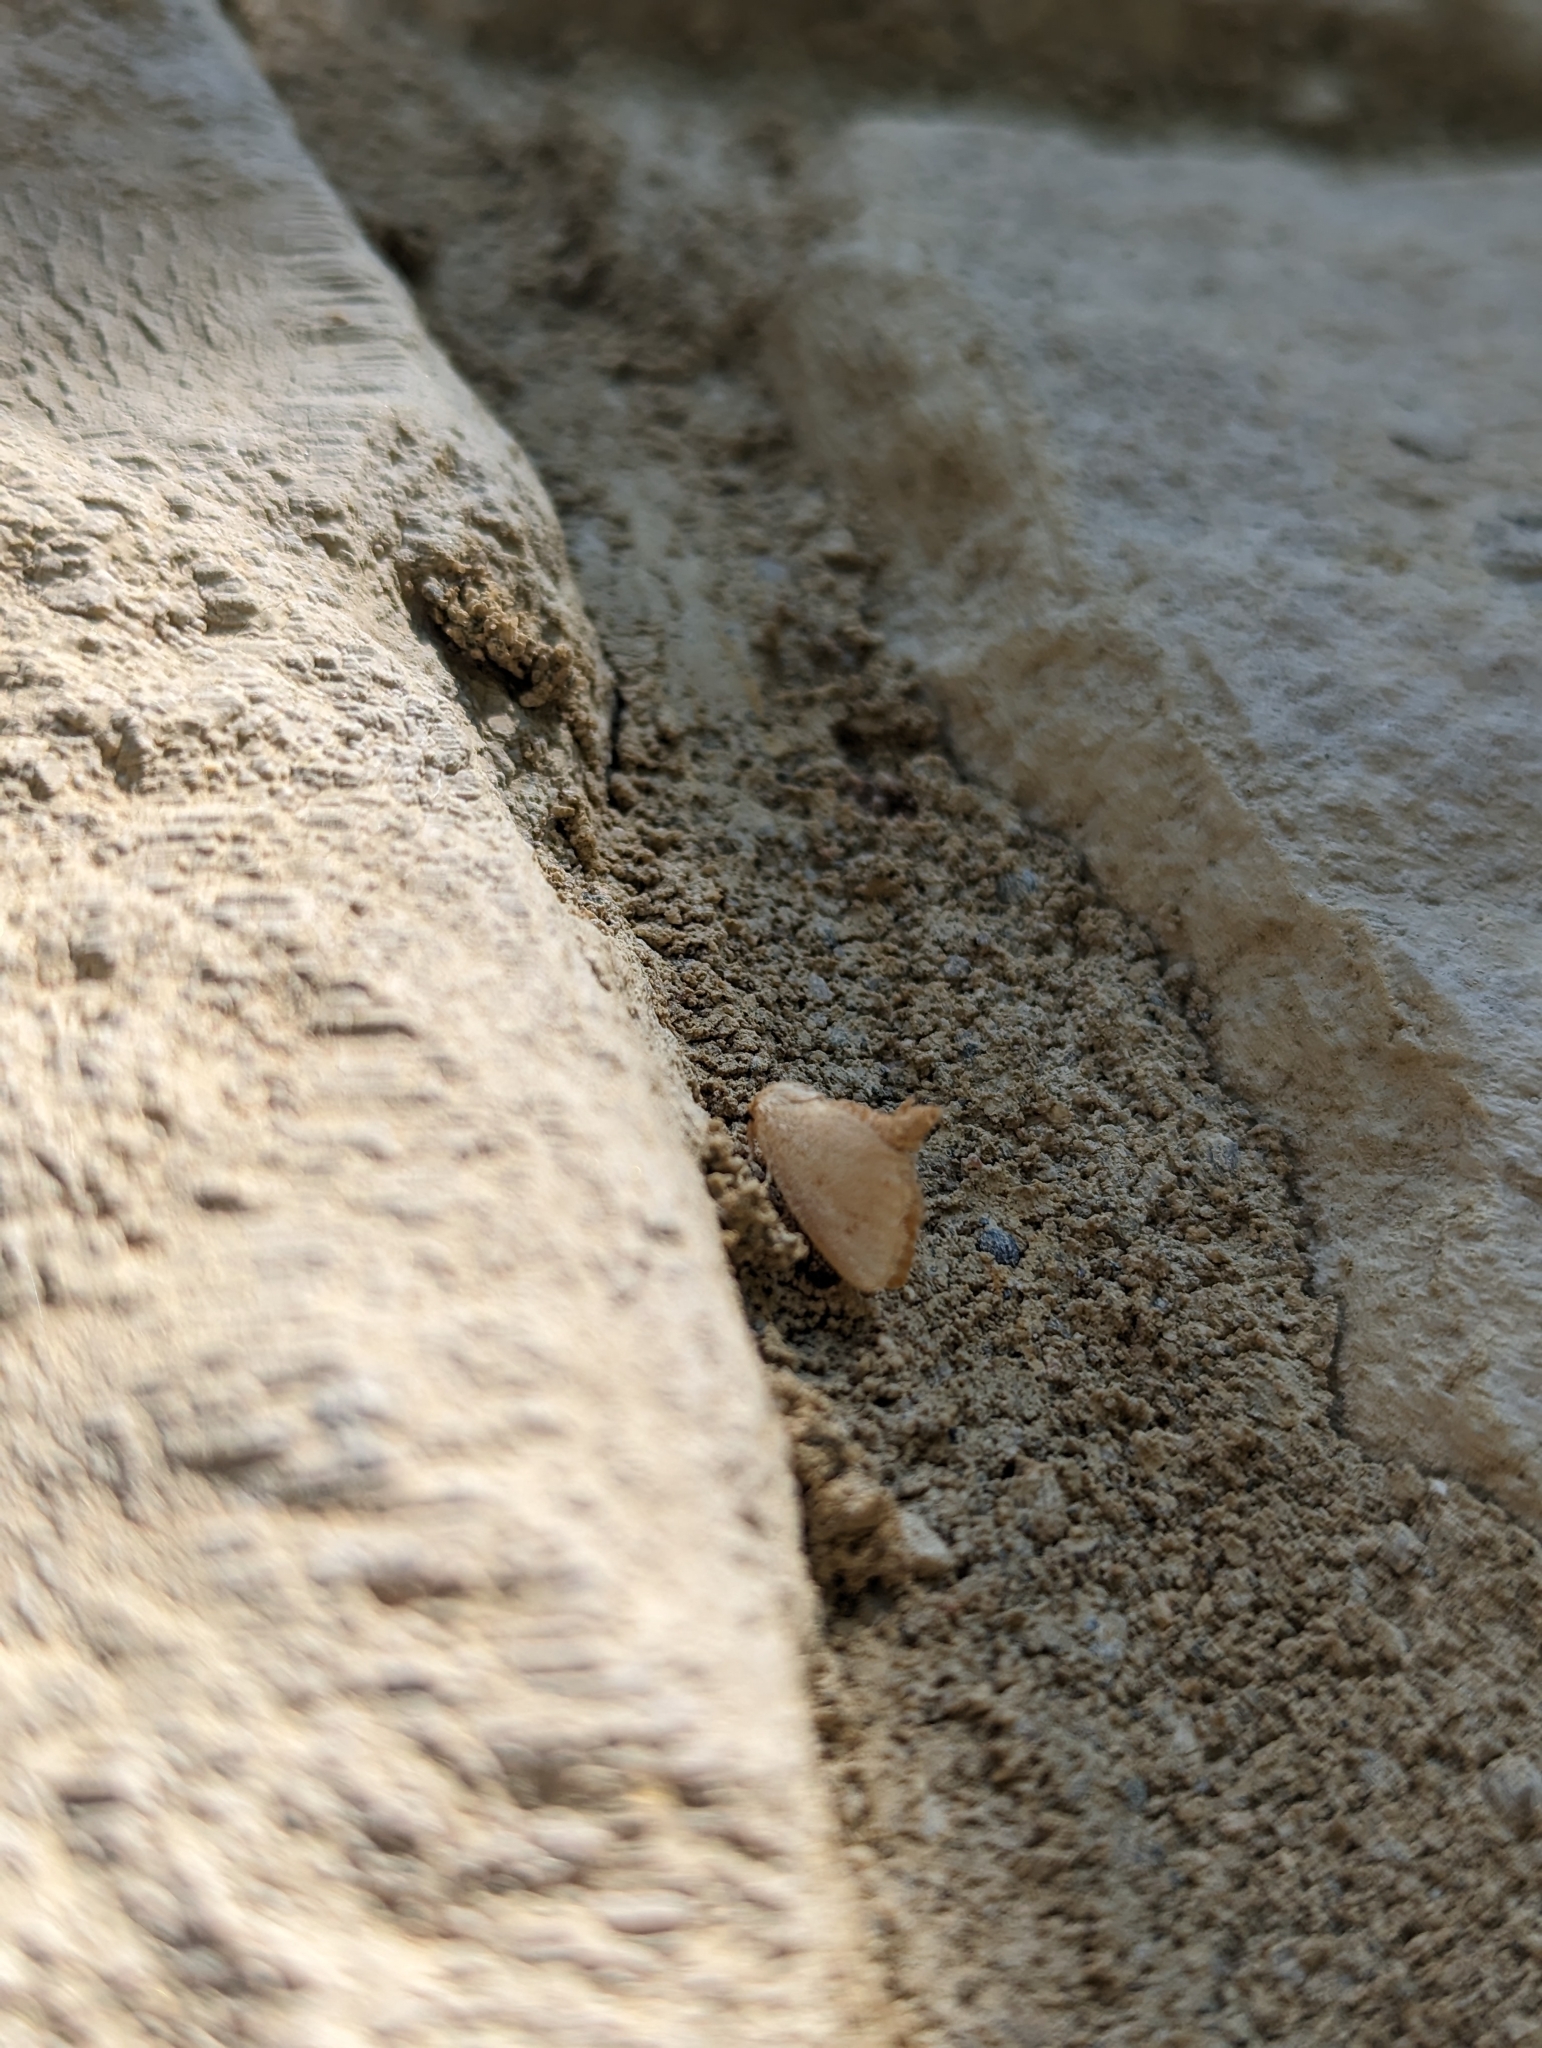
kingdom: Animalia
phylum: Arthropoda
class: Insecta
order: Lepidoptera
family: Limacodidae
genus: Tortricidia
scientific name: Tortricidia pallida
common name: Red-crossed button slug moth
